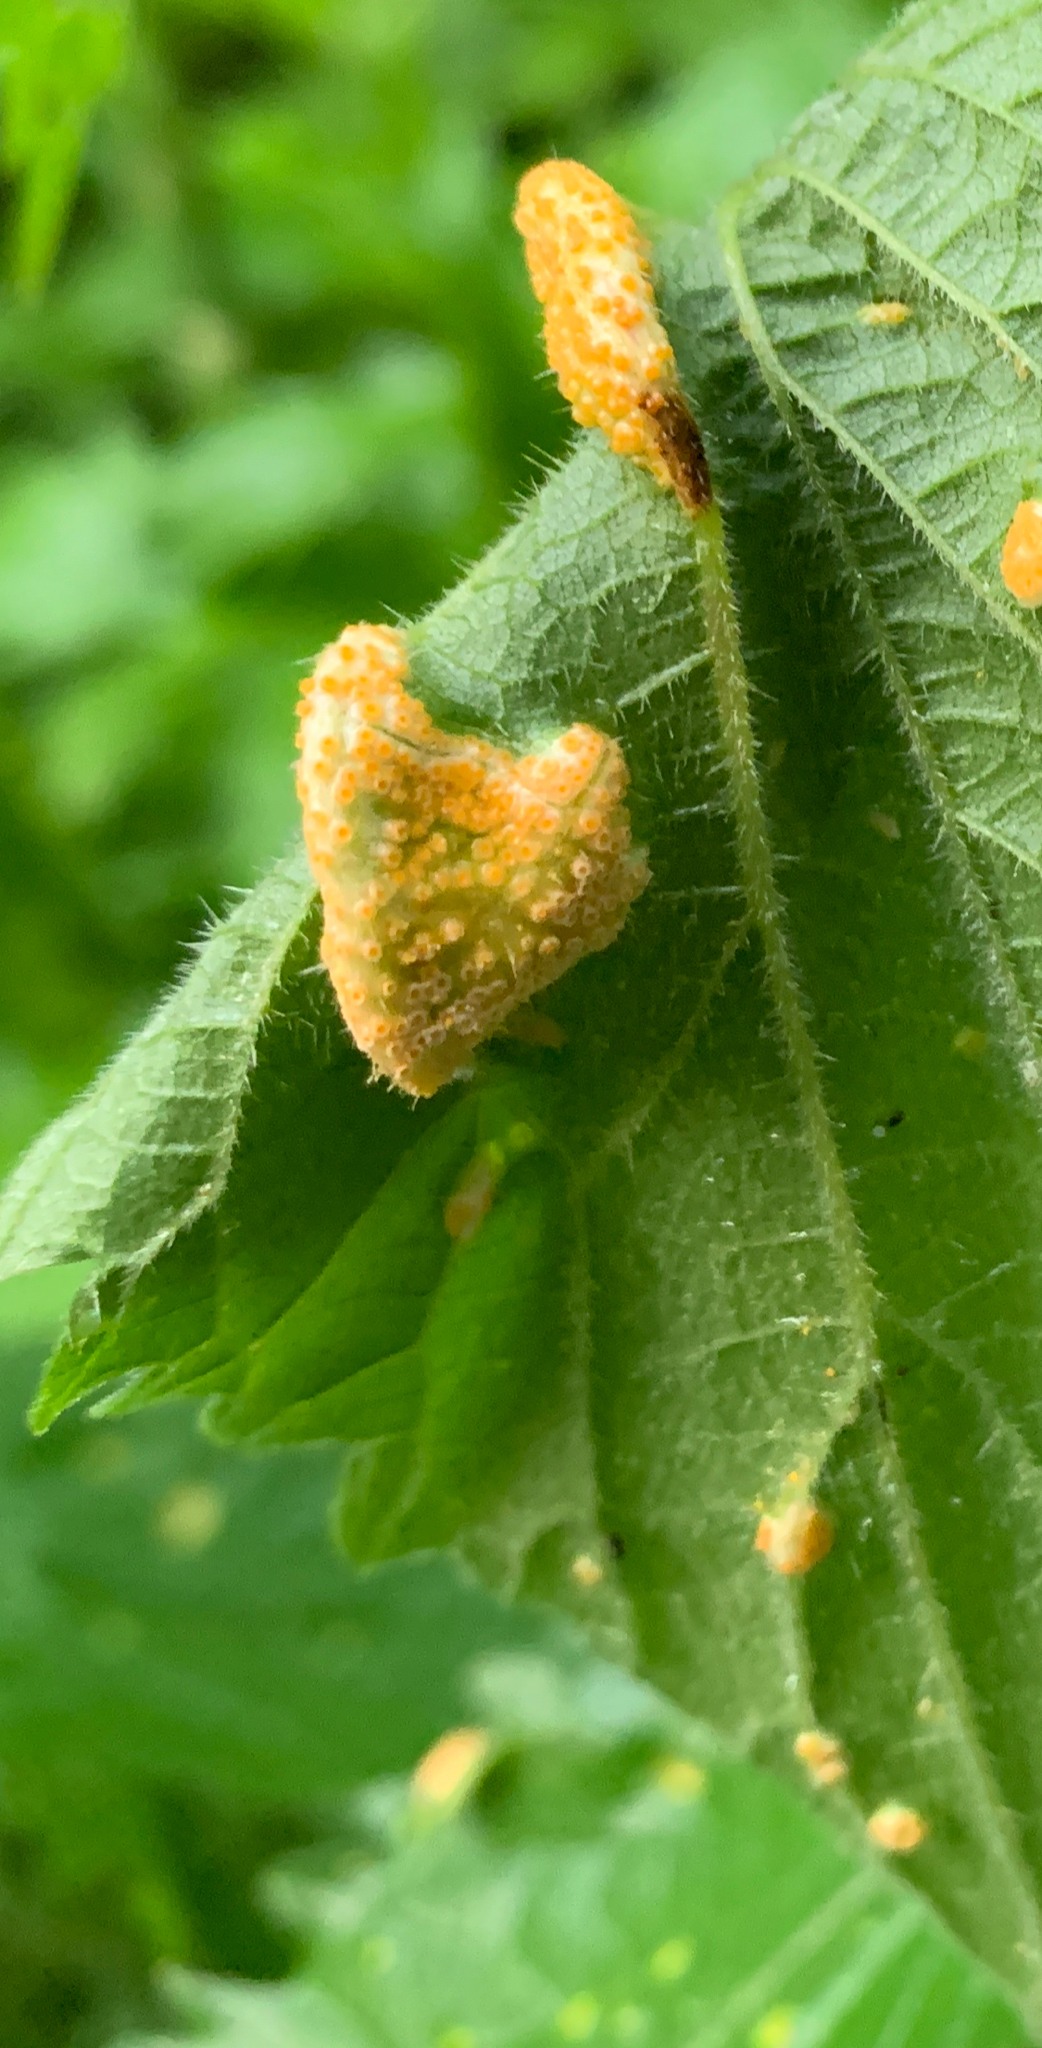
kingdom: Fungi
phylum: Basidiomycota
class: Pucciniomycetes
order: Pucciniales
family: Pucciniaceae
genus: Puccinia
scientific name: Puccinia urticata
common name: Nettle clustercup rust fungus
